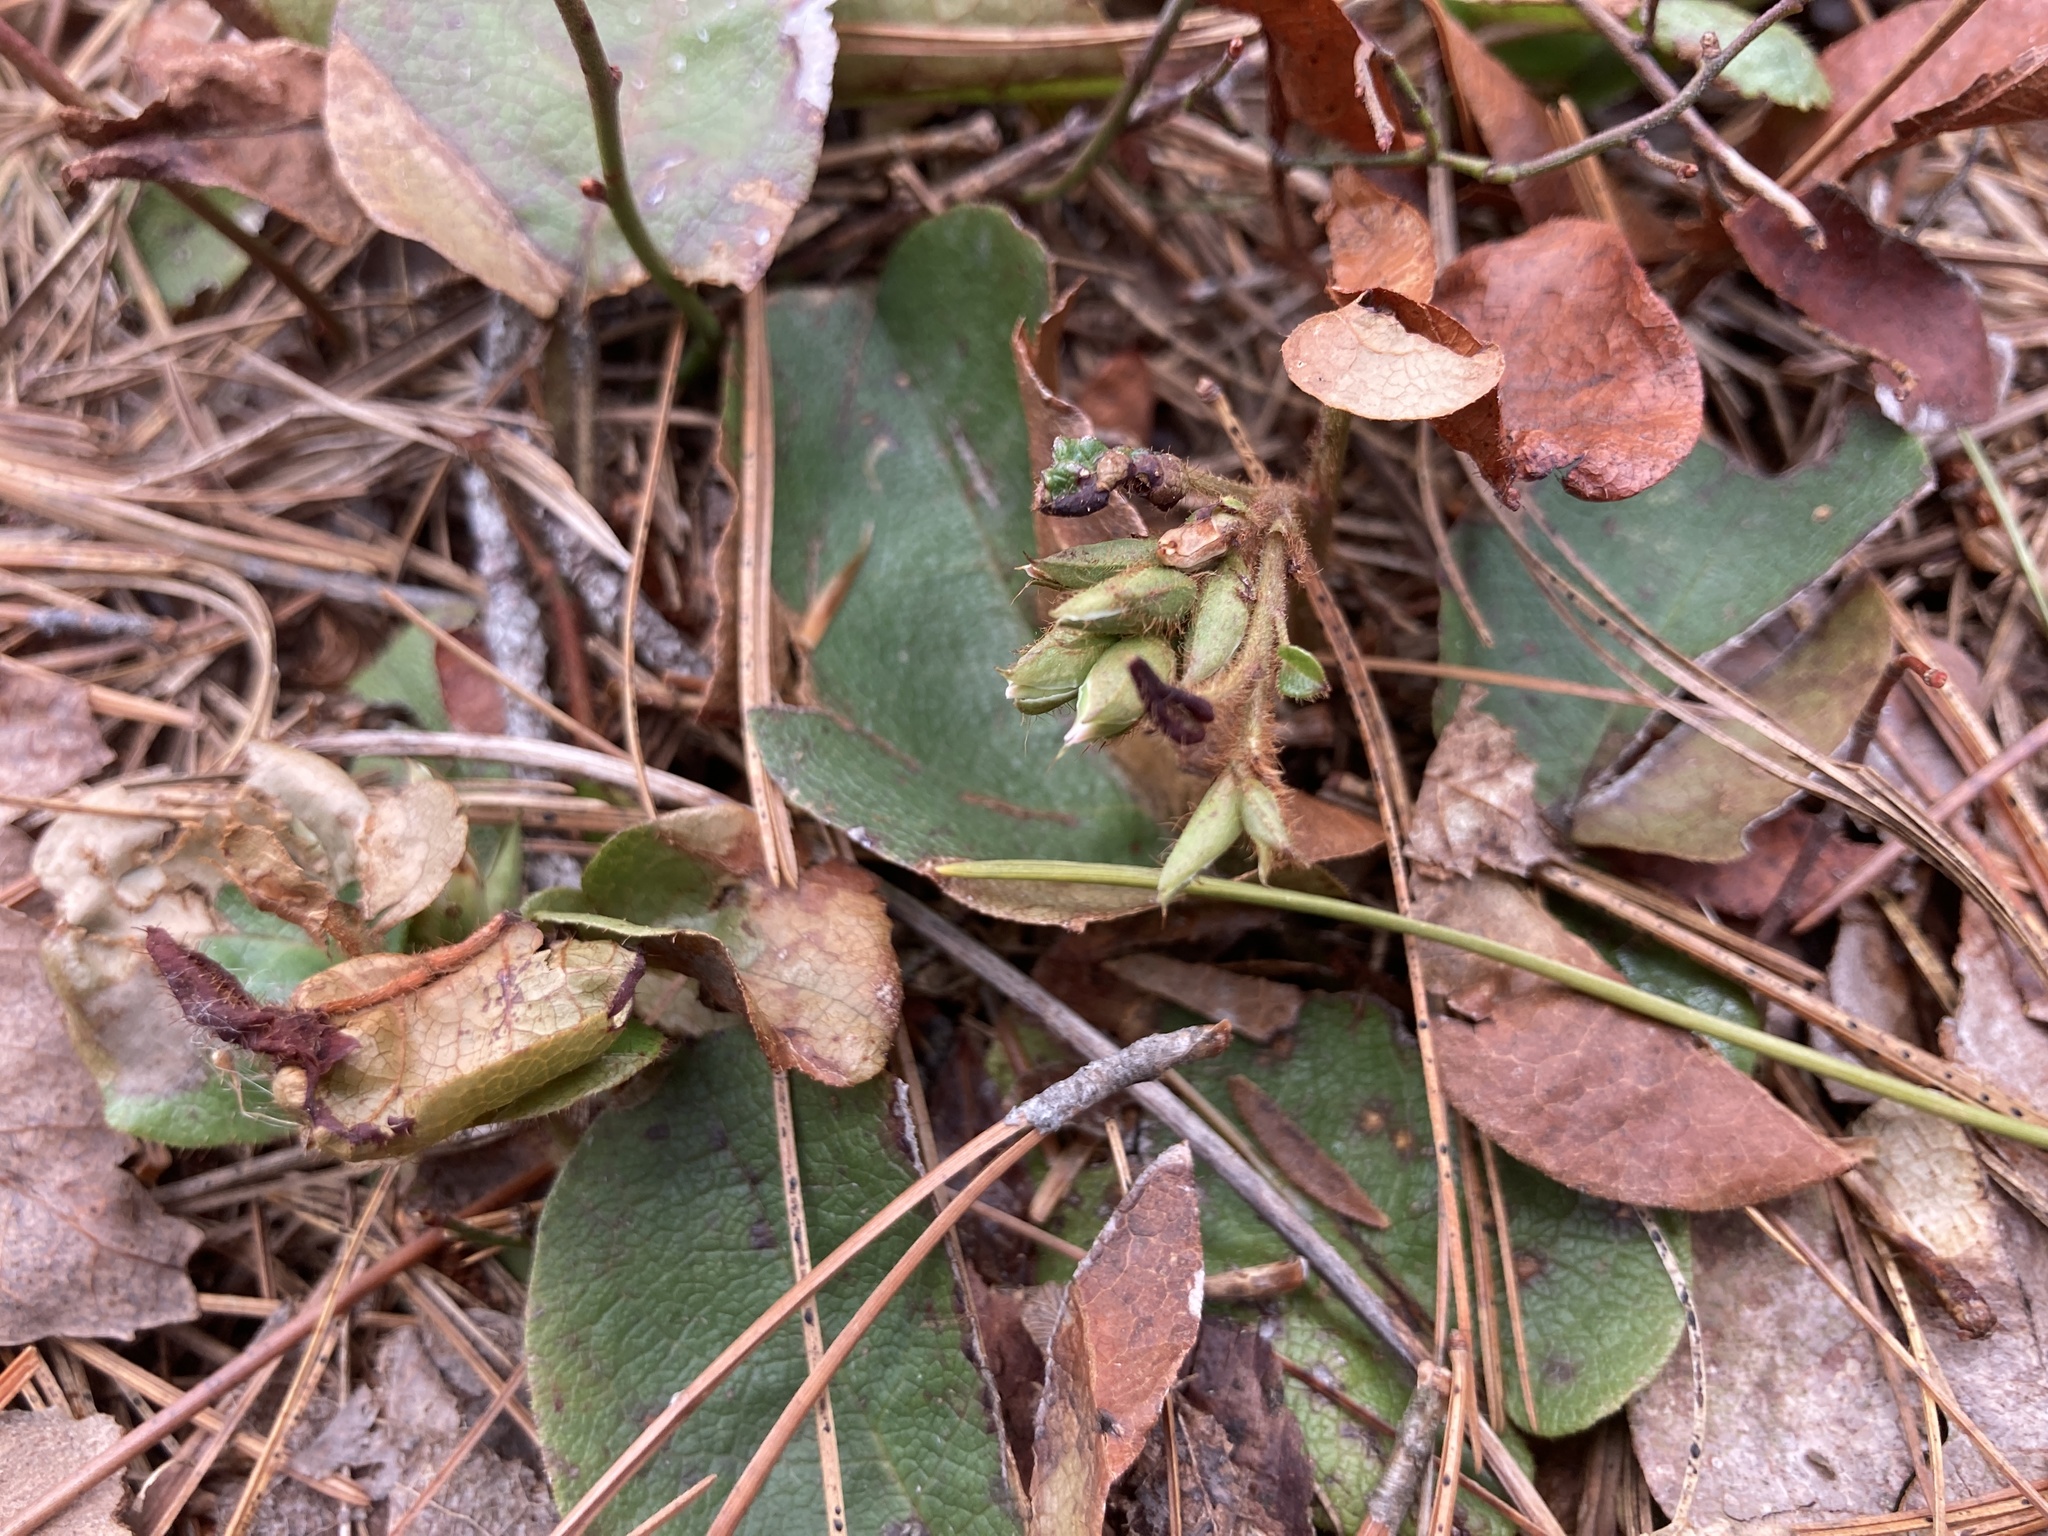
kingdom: Plantae
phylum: Tracheophyta
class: Magnoliopsida
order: Ericales
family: Ericaceae
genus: Epigaea
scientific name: Epigaea repens
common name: Gravelroot
